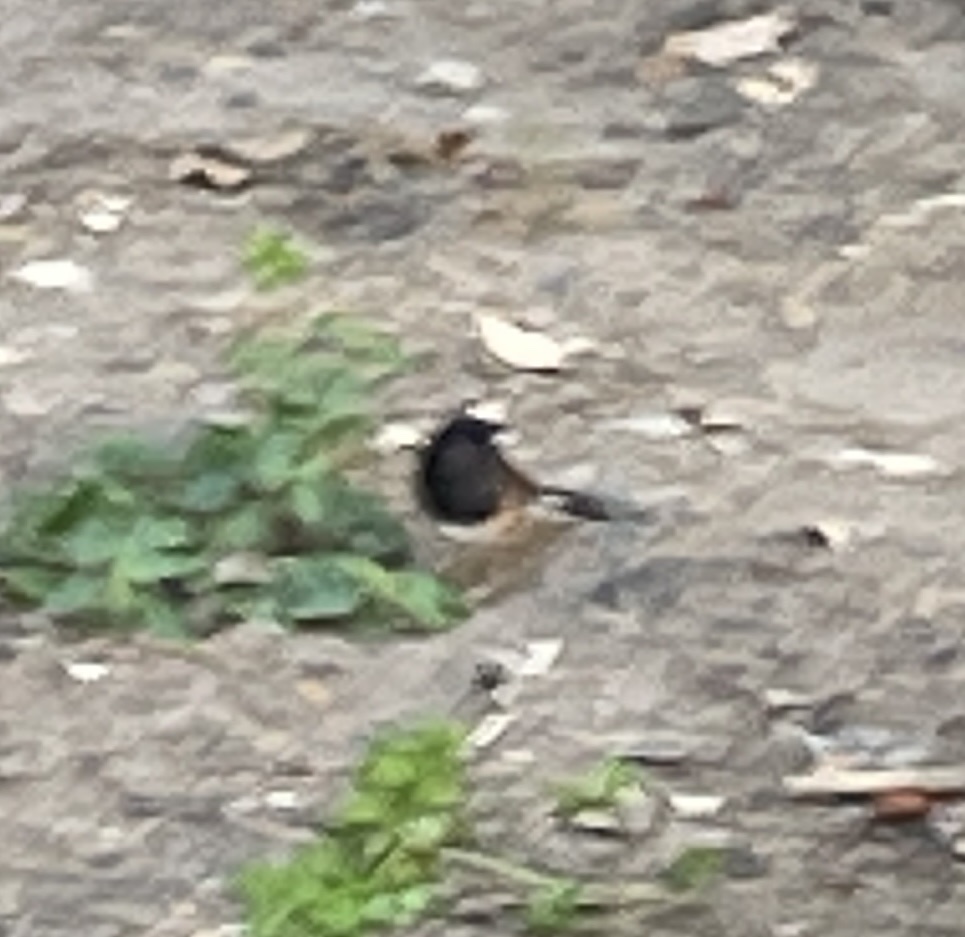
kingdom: Animalia
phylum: Chordata
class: Aves
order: Passeriformes
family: Passerellidae
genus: Junco
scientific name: Junco hyemalis
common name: Dark-eyed junco
